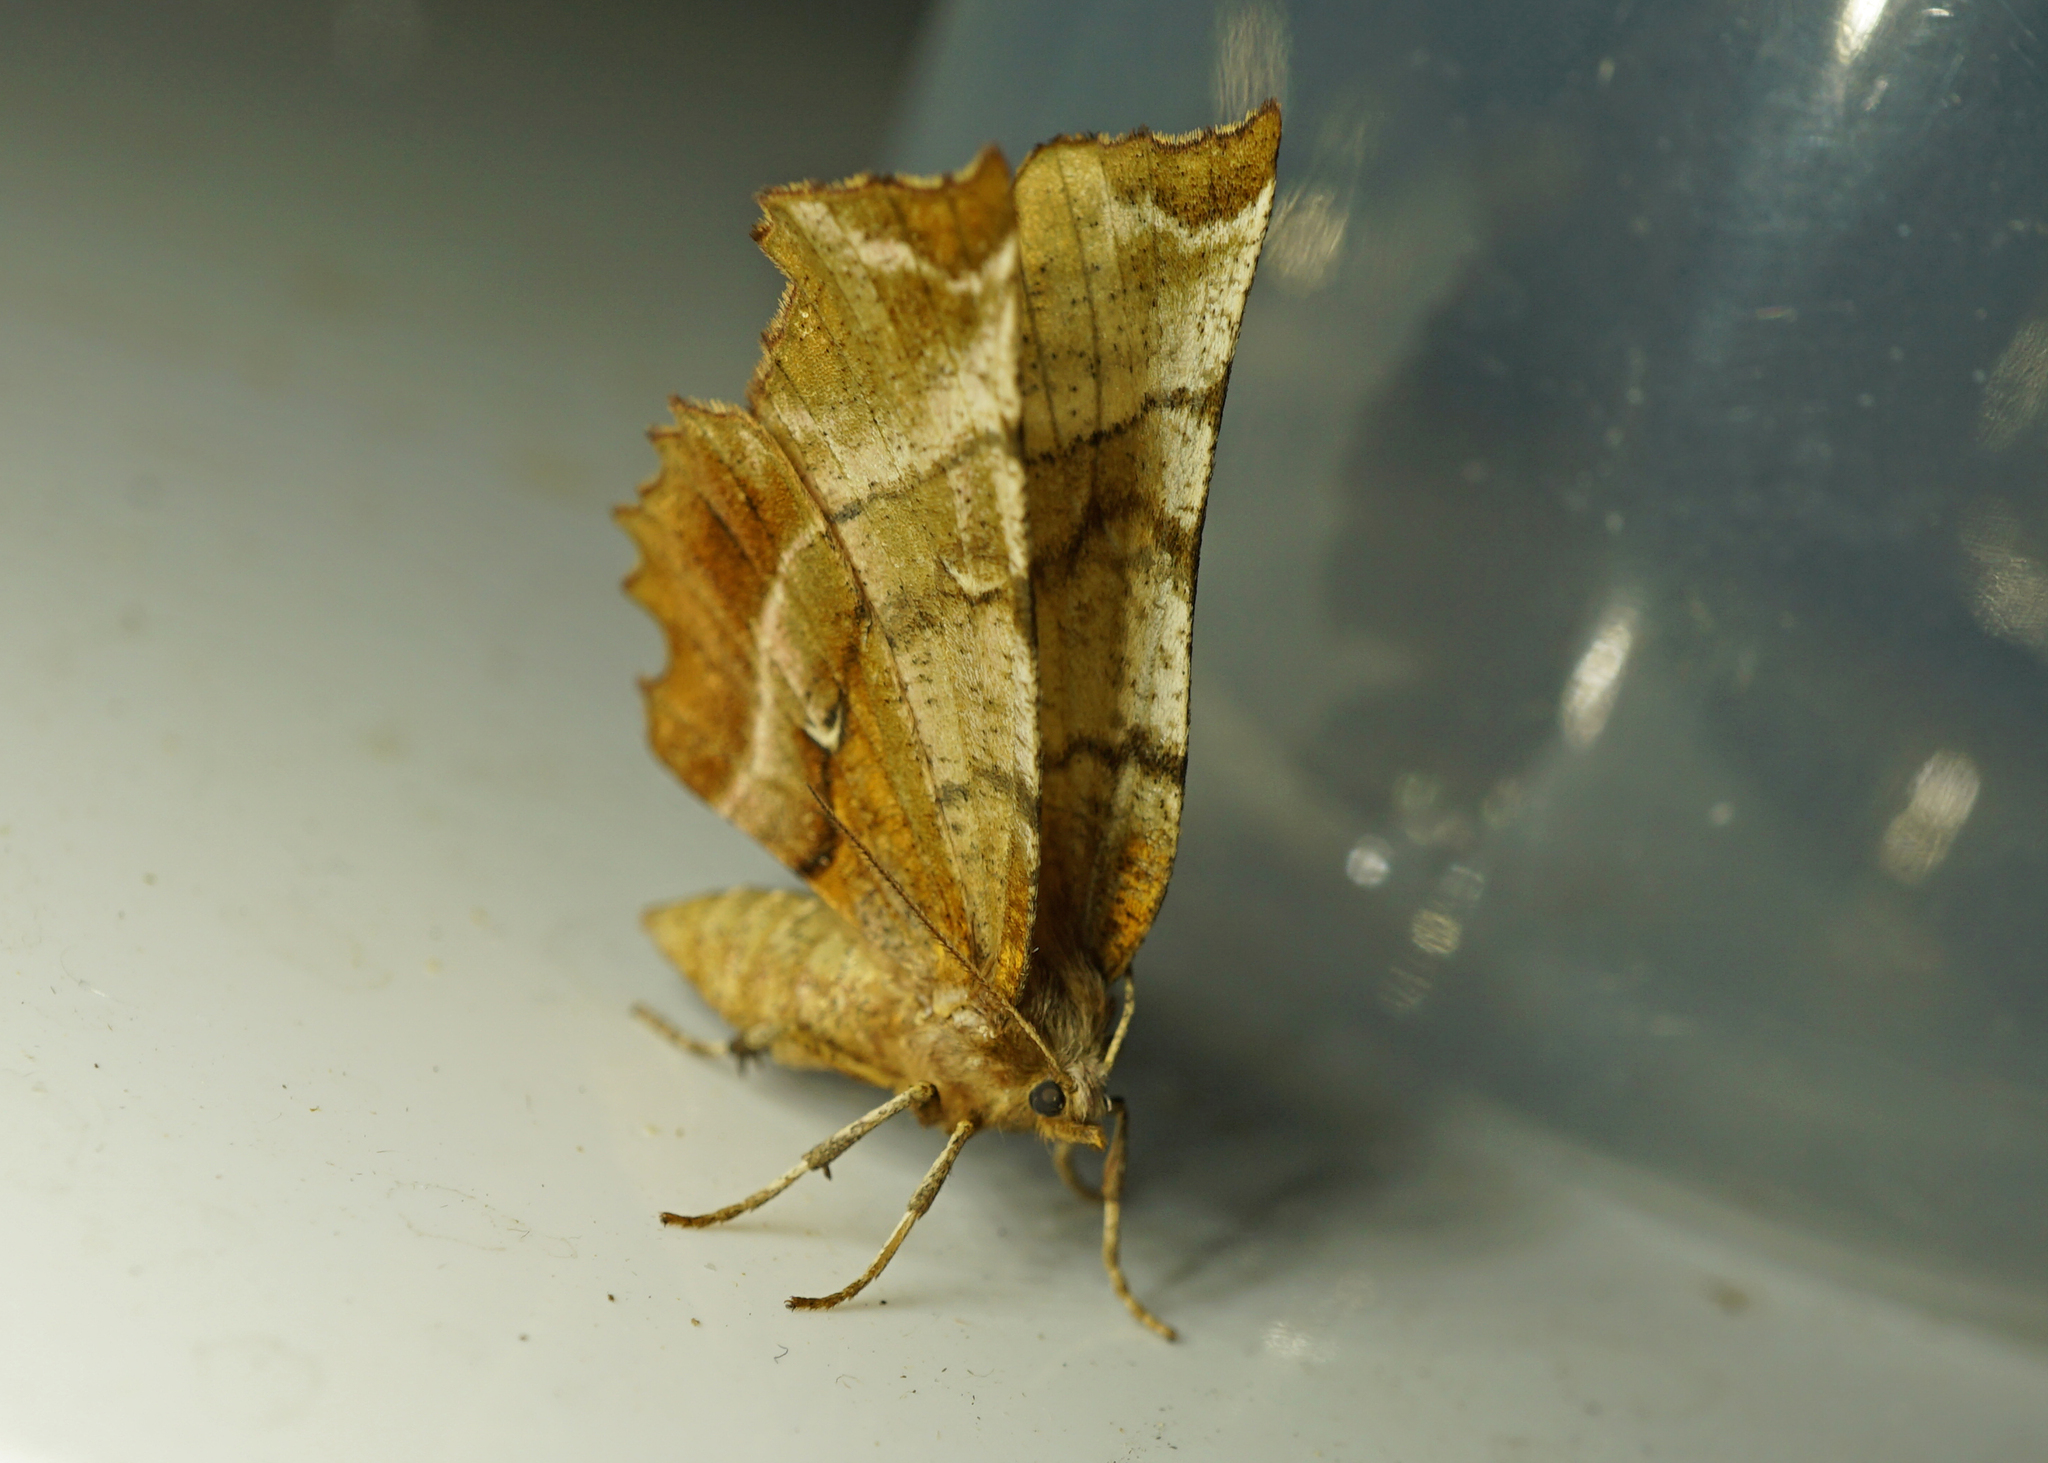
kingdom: Animalia
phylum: Arthropoda
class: Insecta
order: Lepidoptera
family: Geometridae
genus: Selenia
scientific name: Selenia dentaria
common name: Early thorn
